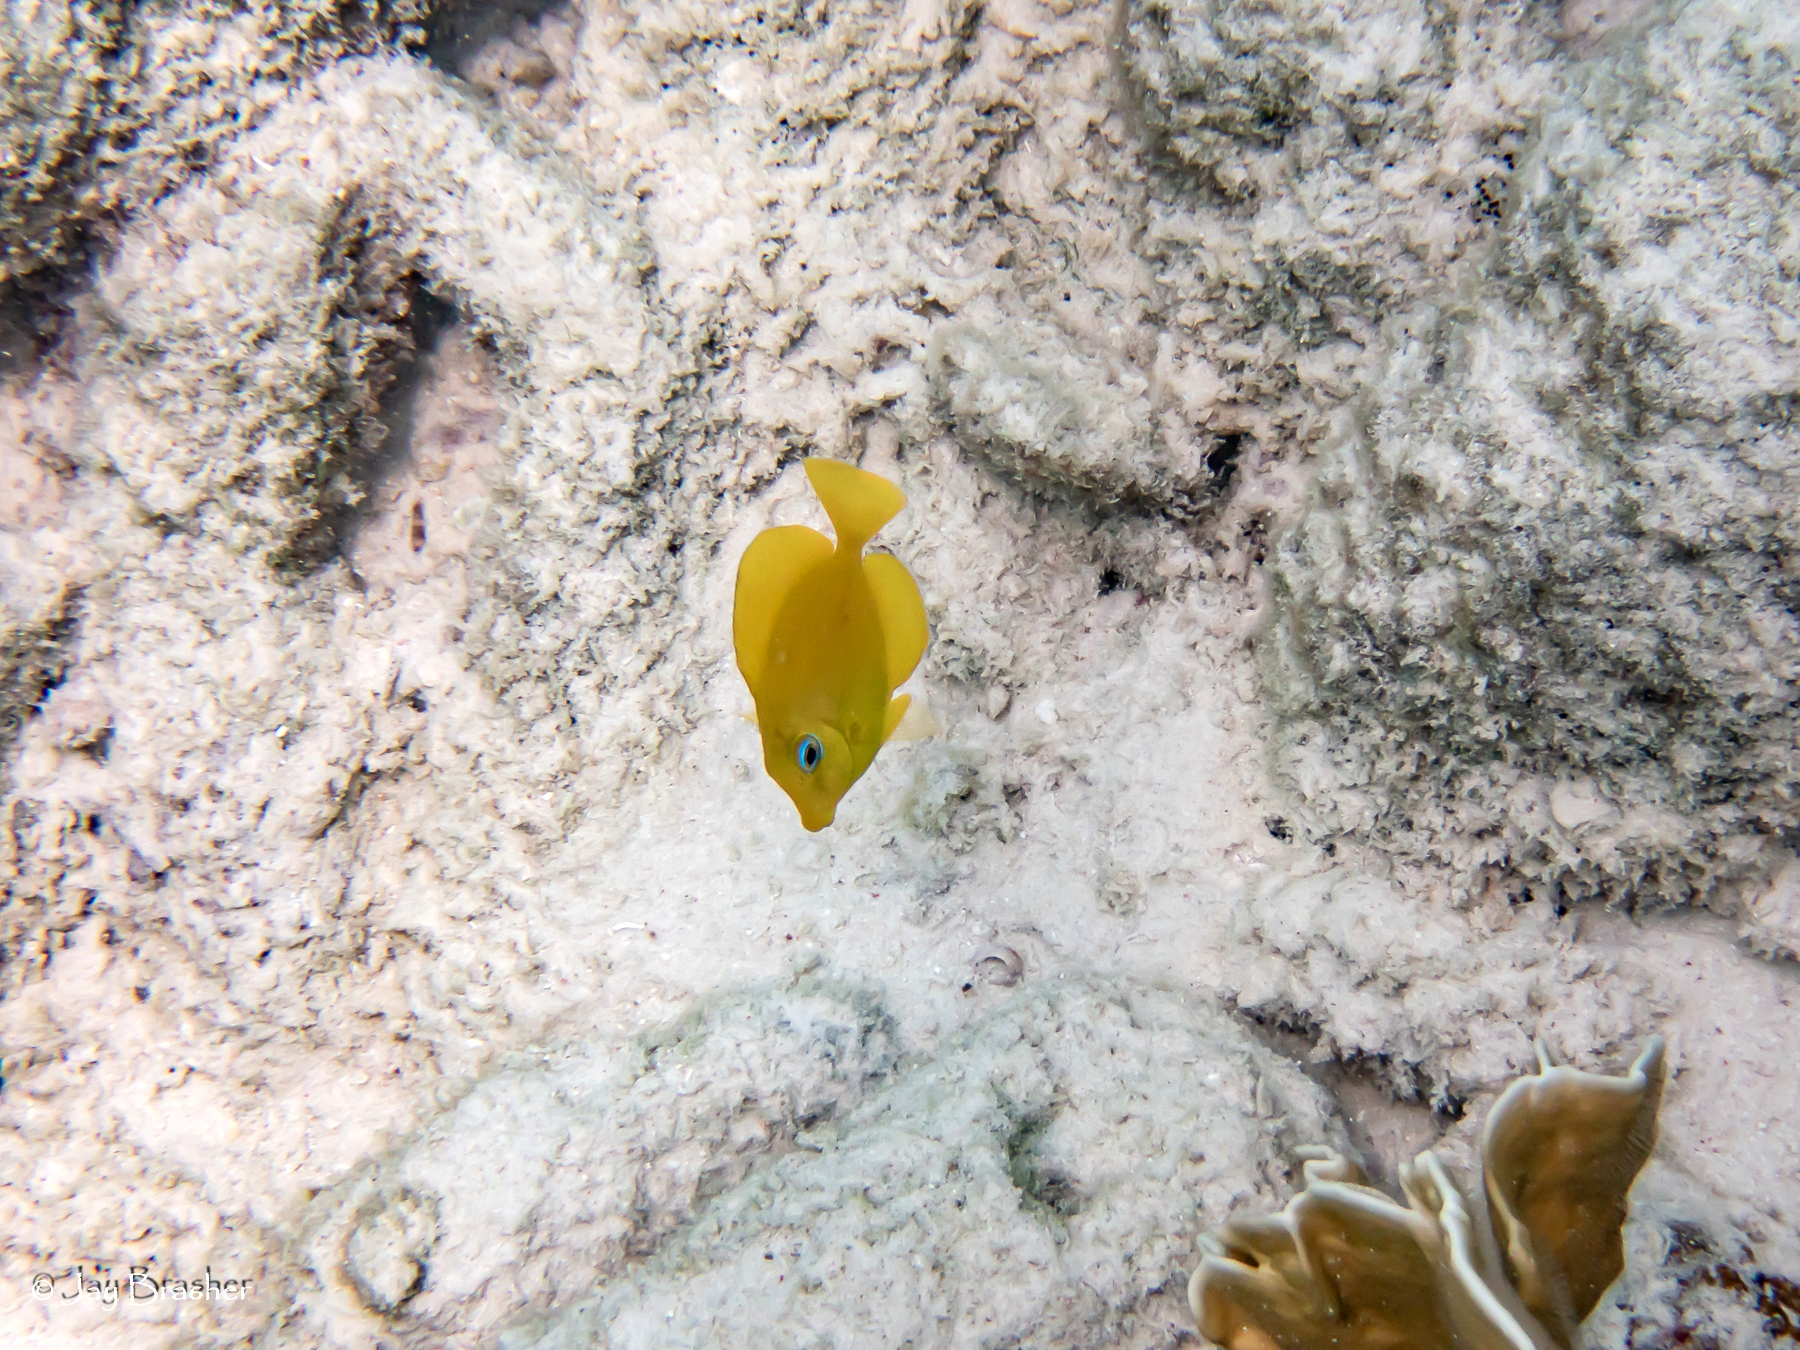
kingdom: Animalia
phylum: Chordata
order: Perciformes
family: Acanthuridae
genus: Acanthurus
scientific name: Acanthurus coeruleus
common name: Blue tang
